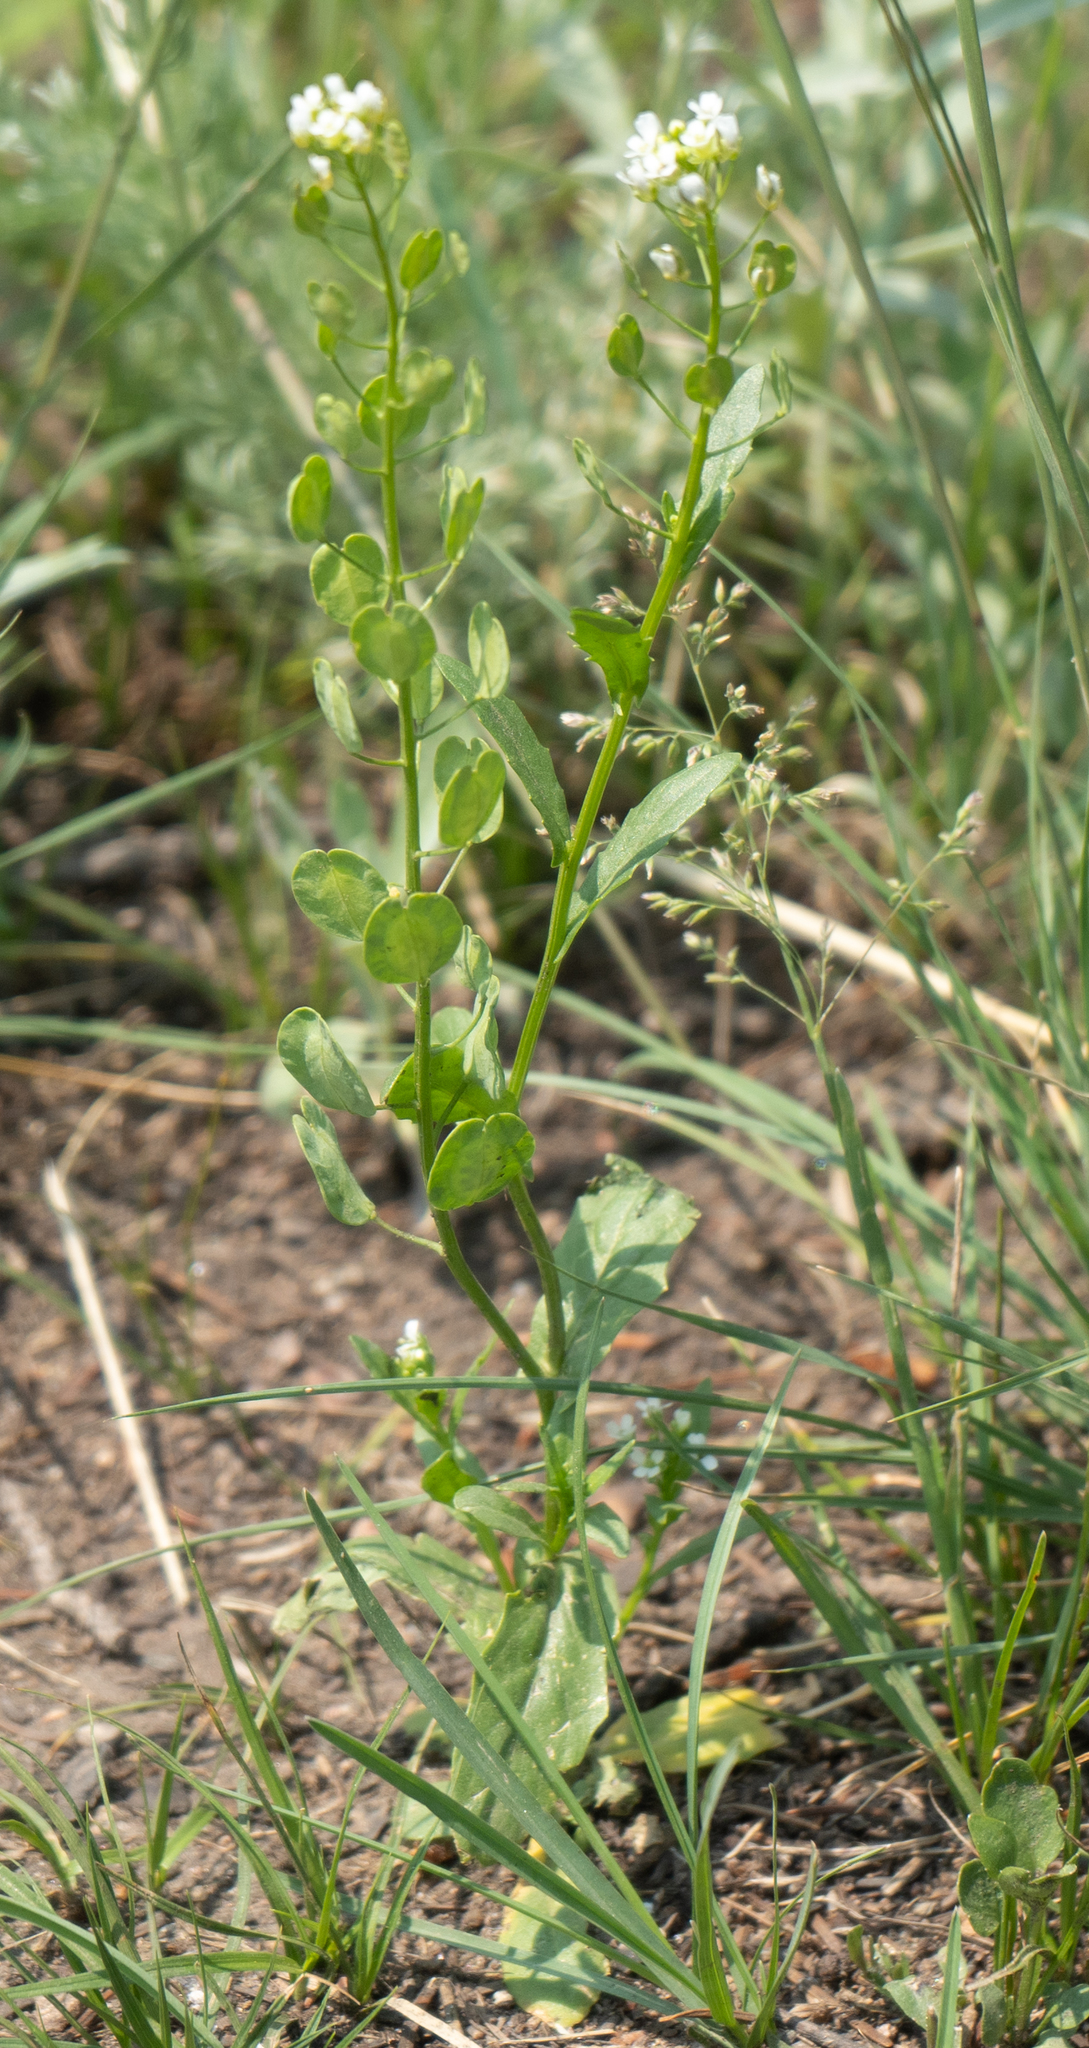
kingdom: Plantae
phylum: Tracheophyta
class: Magnoliopsida
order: Brassicales
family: Brassicaceae
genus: Thlaspi
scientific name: Thlaspi arvense
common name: Field pennycress
